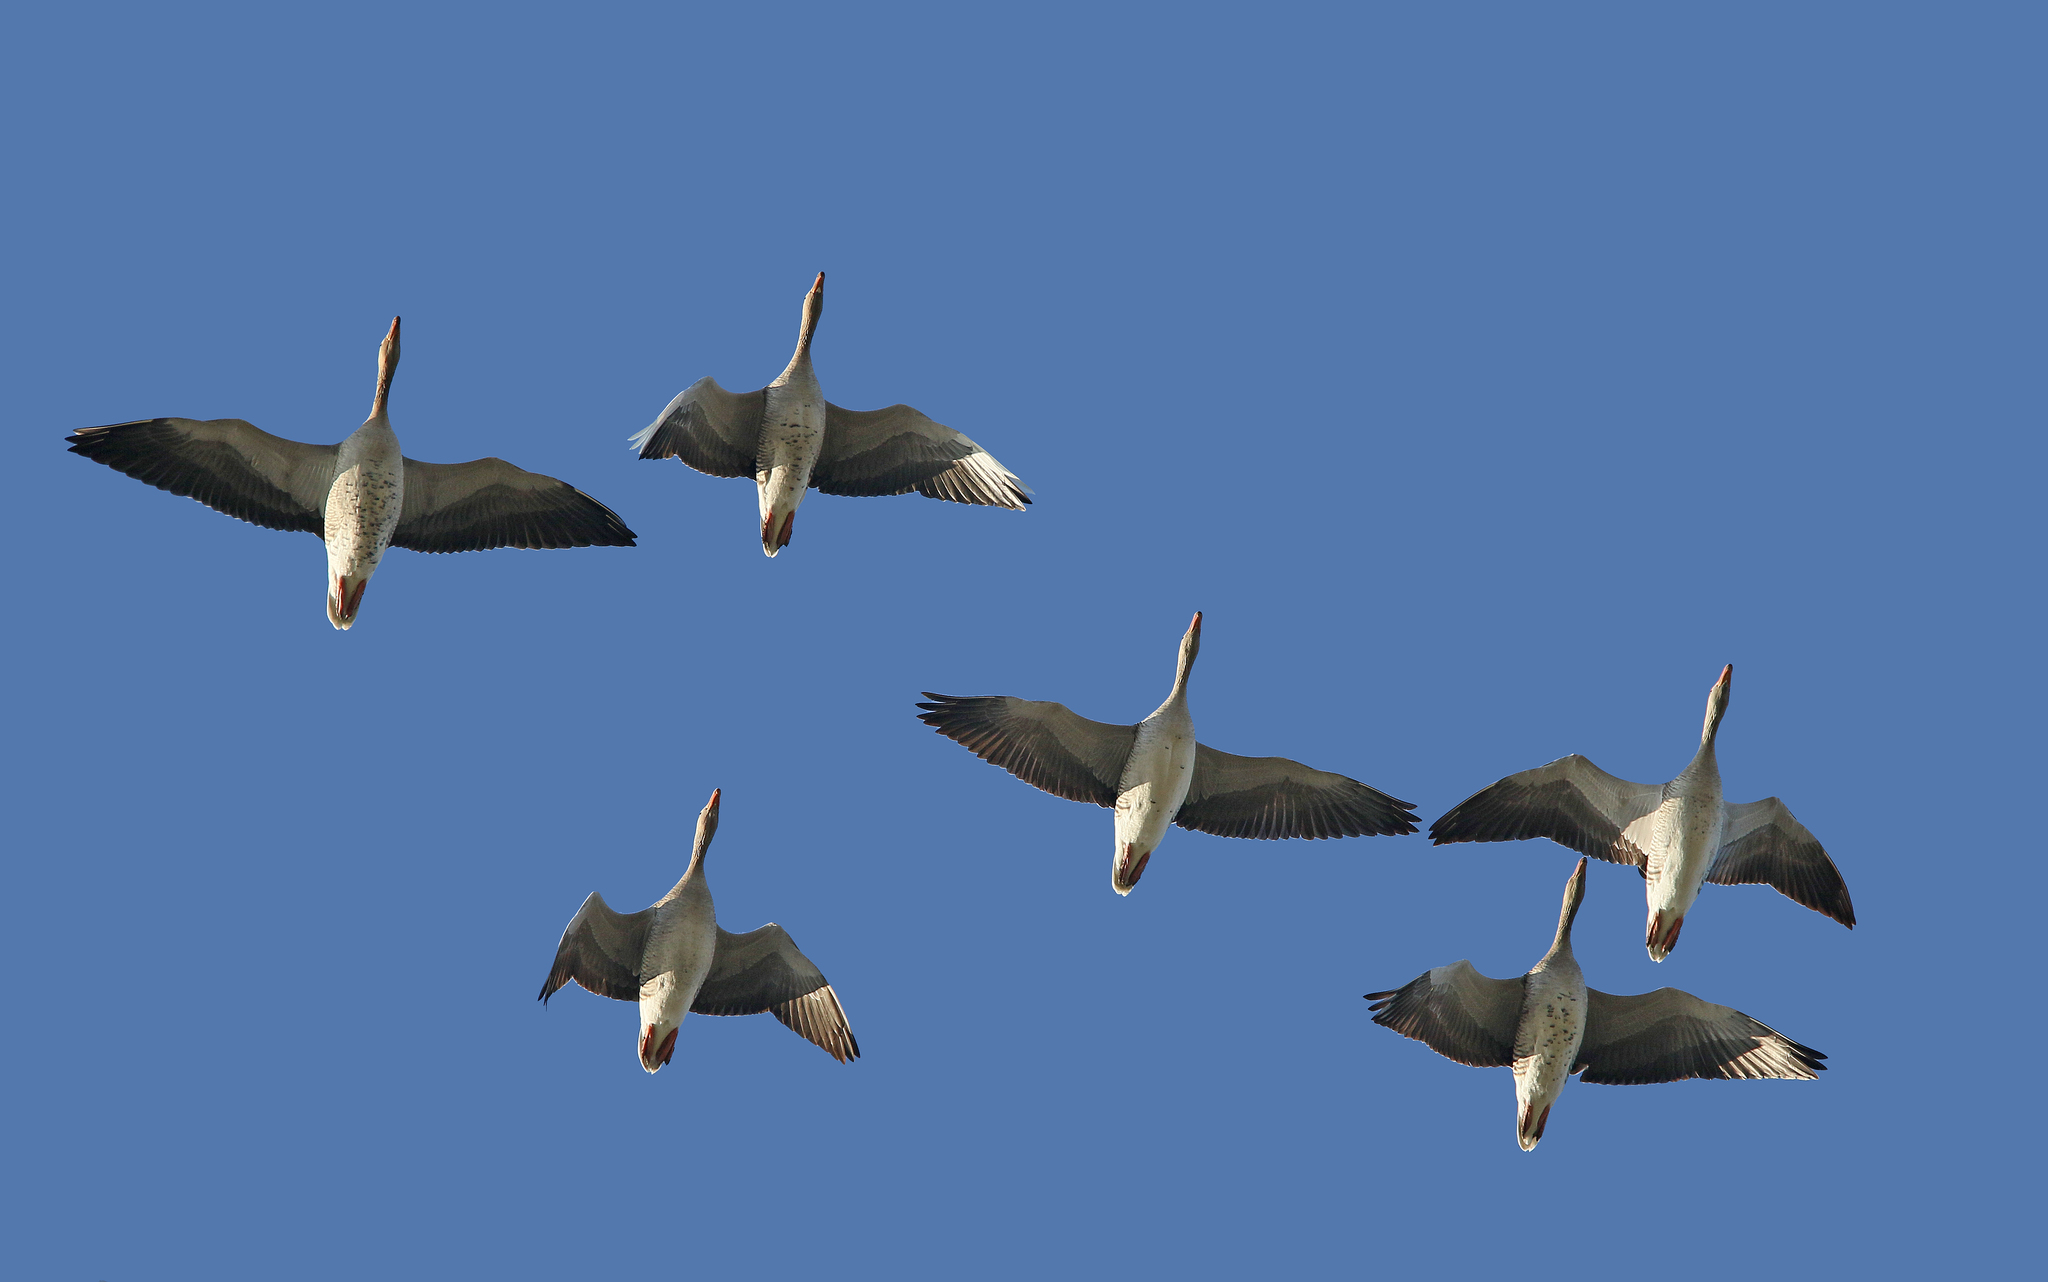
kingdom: Animalia
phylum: Chordata
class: Aves
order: Anseriformes
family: Anatidae
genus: Anser
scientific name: Anser anser
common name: Greylag goose
